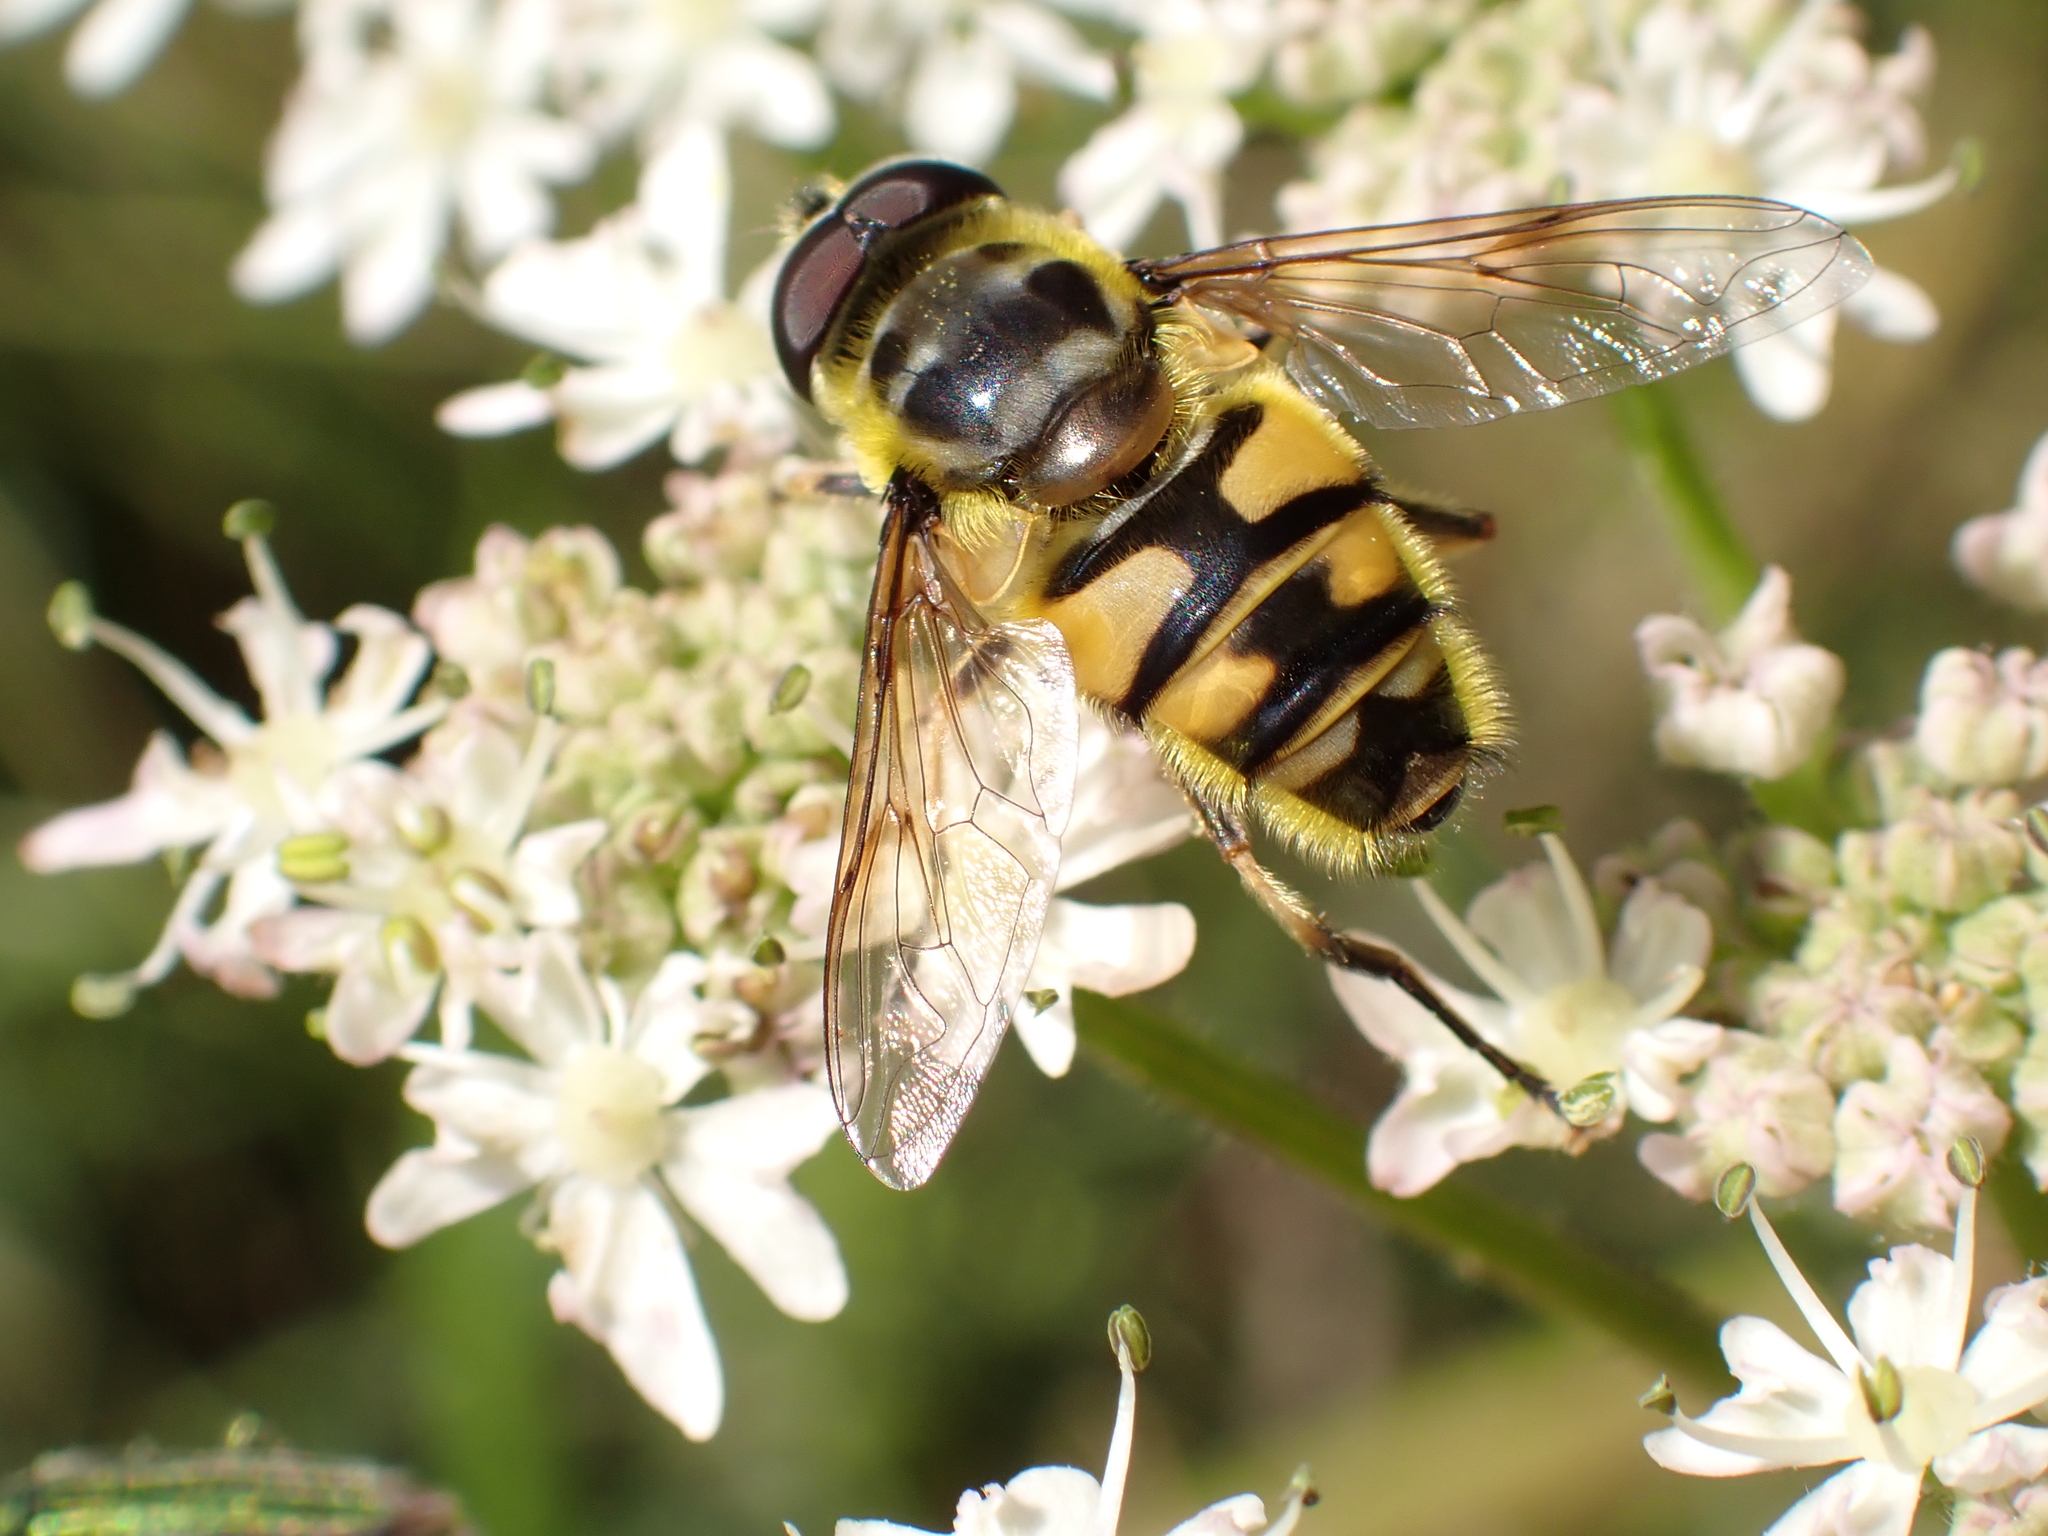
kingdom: Animalia
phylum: Arthropoda
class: Insecta
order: Diptera
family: Syrphidae
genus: Myathropa
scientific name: Myathropa florea
